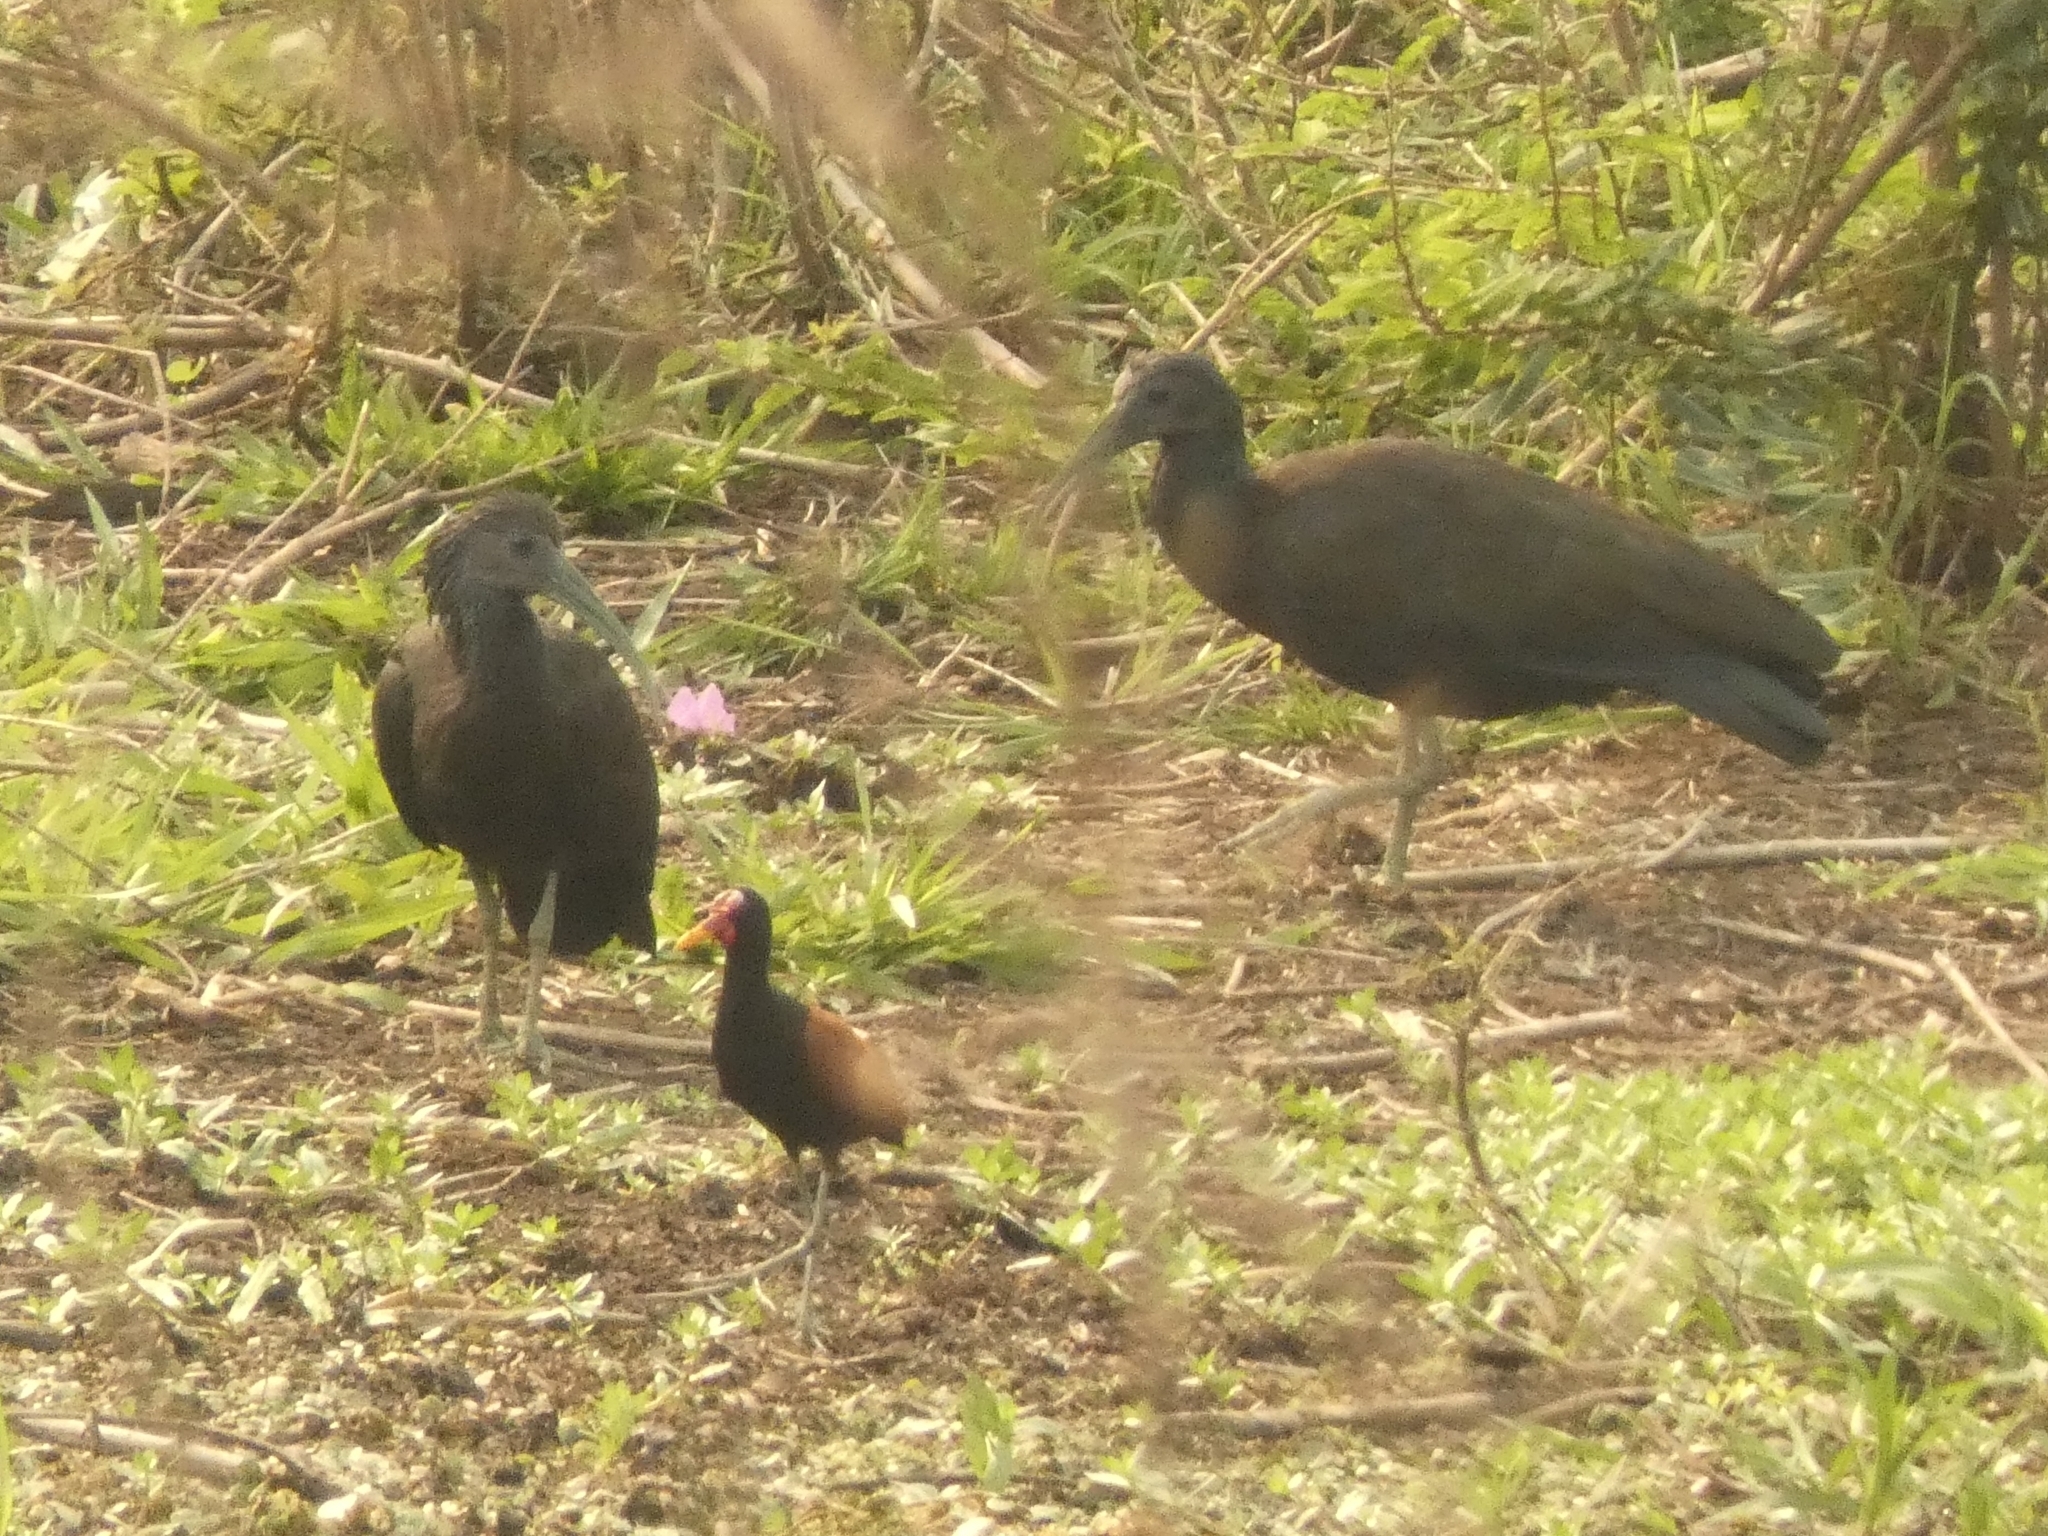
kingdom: Animalia
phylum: Chordata
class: Aves
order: Pelecaniformes
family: Threskiornithidae
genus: Mesembrinibis
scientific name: Mesembrinibis cayennensis
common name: Green ibis
